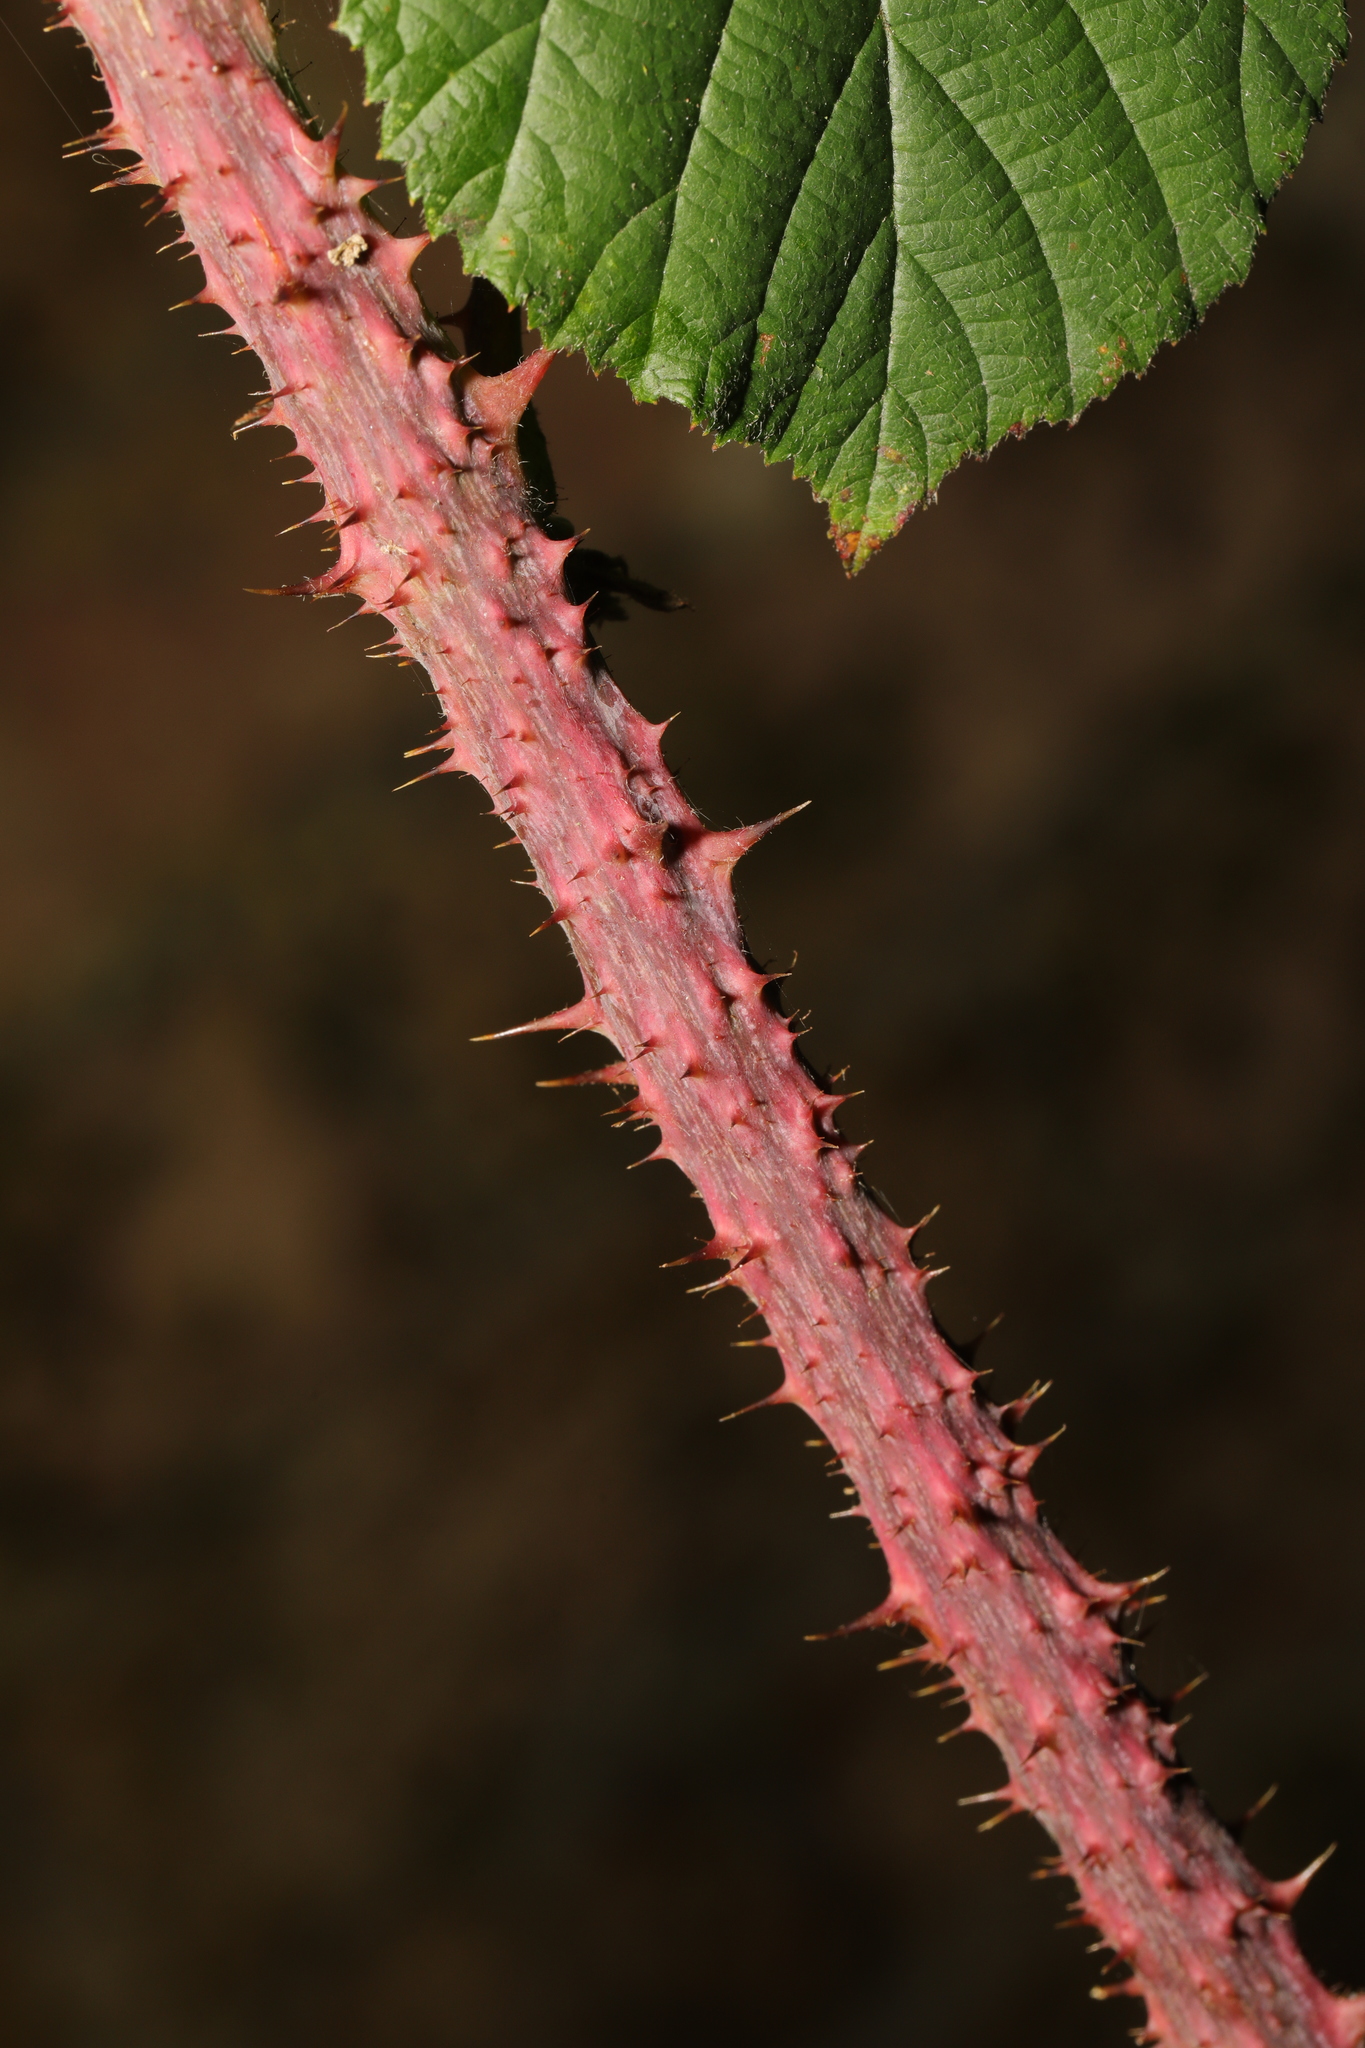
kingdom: Plantae
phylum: Tracheophyta
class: Magnoliopsida
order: Rosales
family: Rosaceae
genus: Rubus
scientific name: Rubus horrefactus
